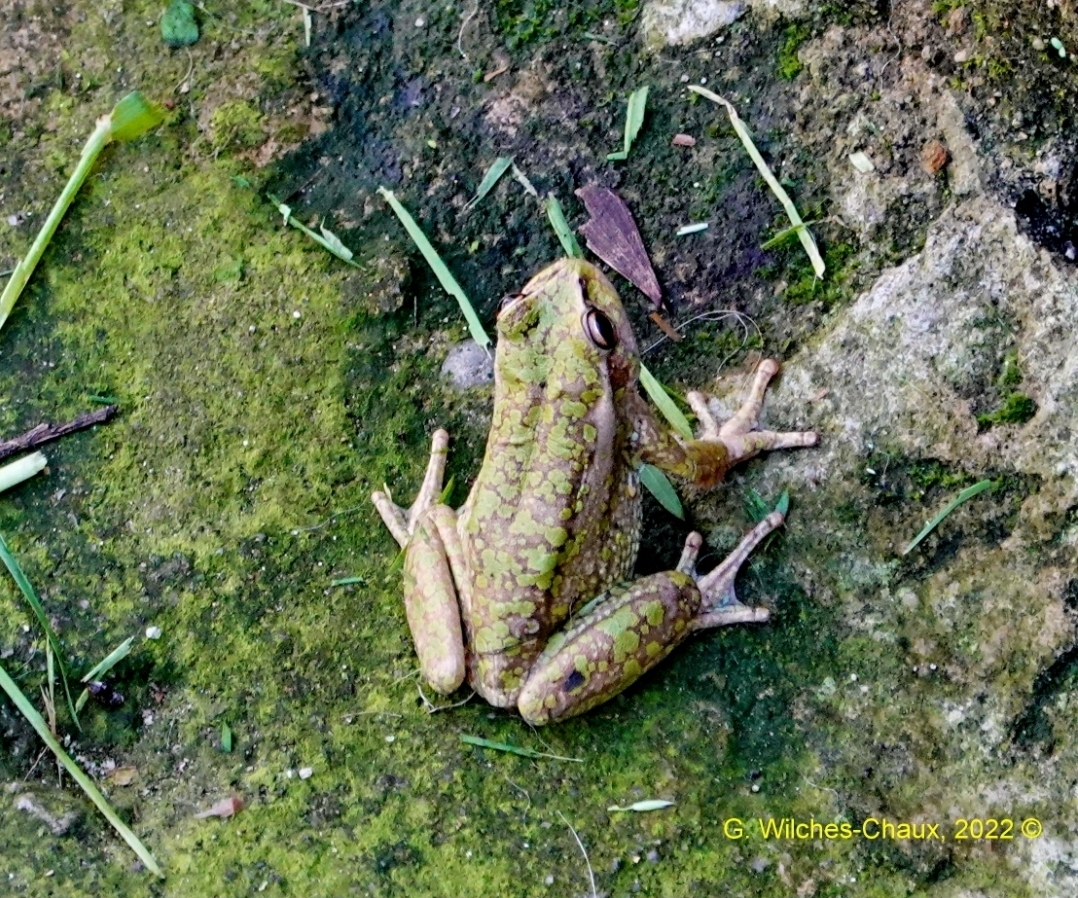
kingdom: Animalia
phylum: Chordata
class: Amphibia
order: Anura
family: Hylidae
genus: Dendropsophus
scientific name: Dendropsophus molitor
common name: Green dotted treefrog
